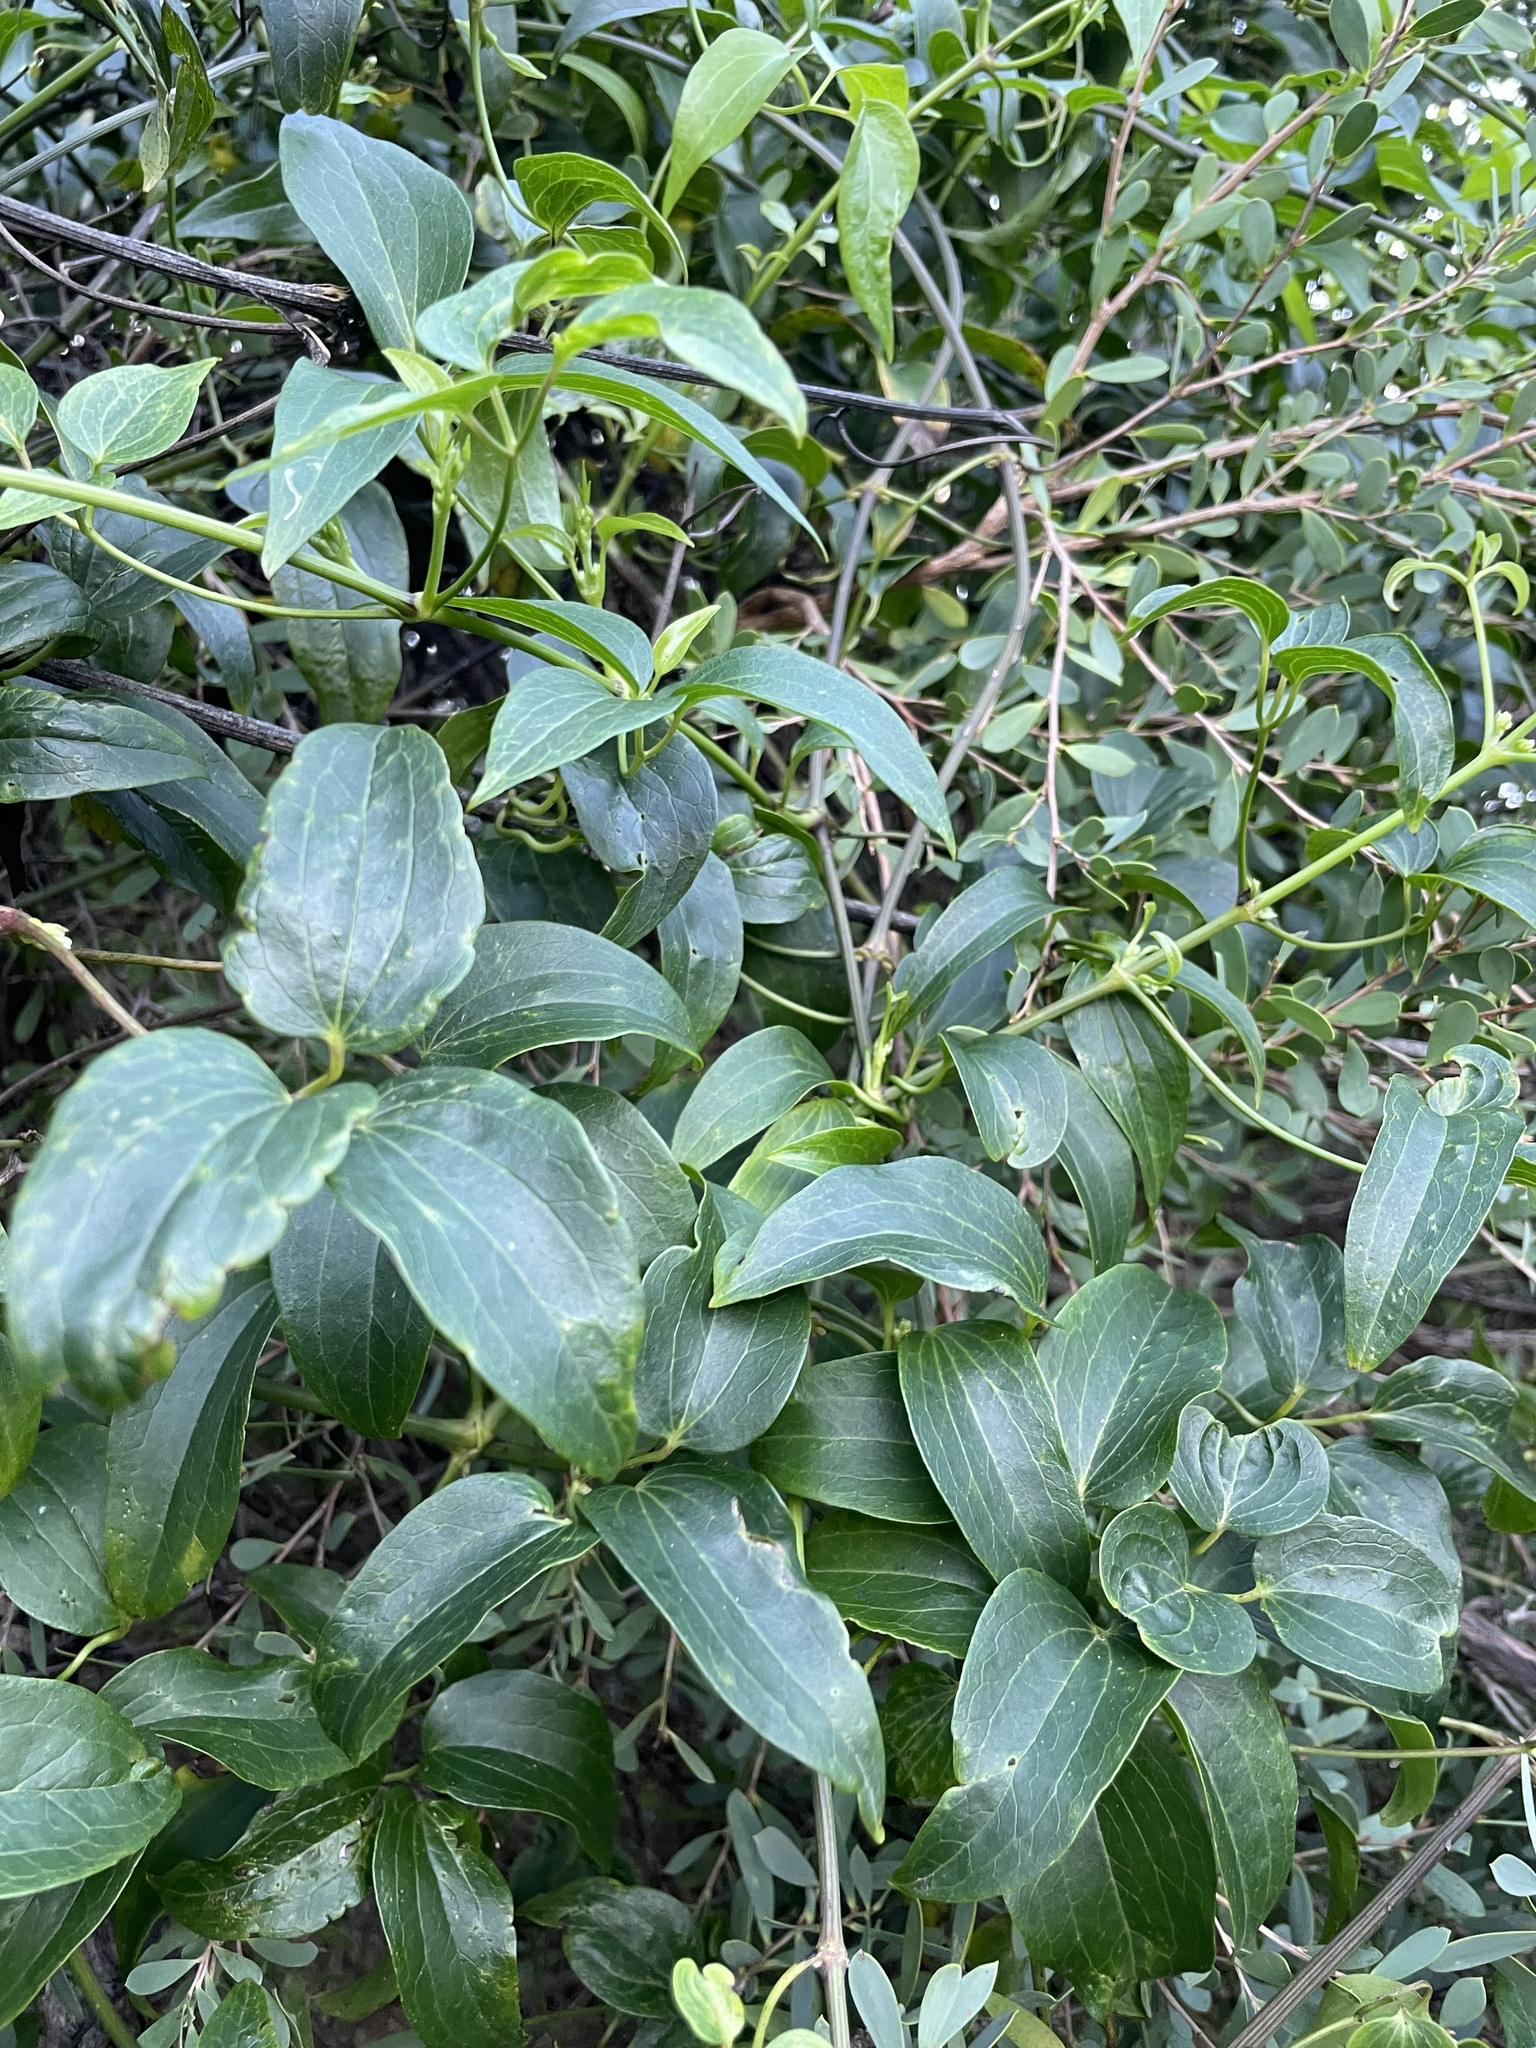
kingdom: Plantae
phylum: Tracheophyta
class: Magnoliopsida
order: Ranunculales
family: Ranunculaceae
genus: Clematis
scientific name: Clematis glycinoides
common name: Forest clematis
